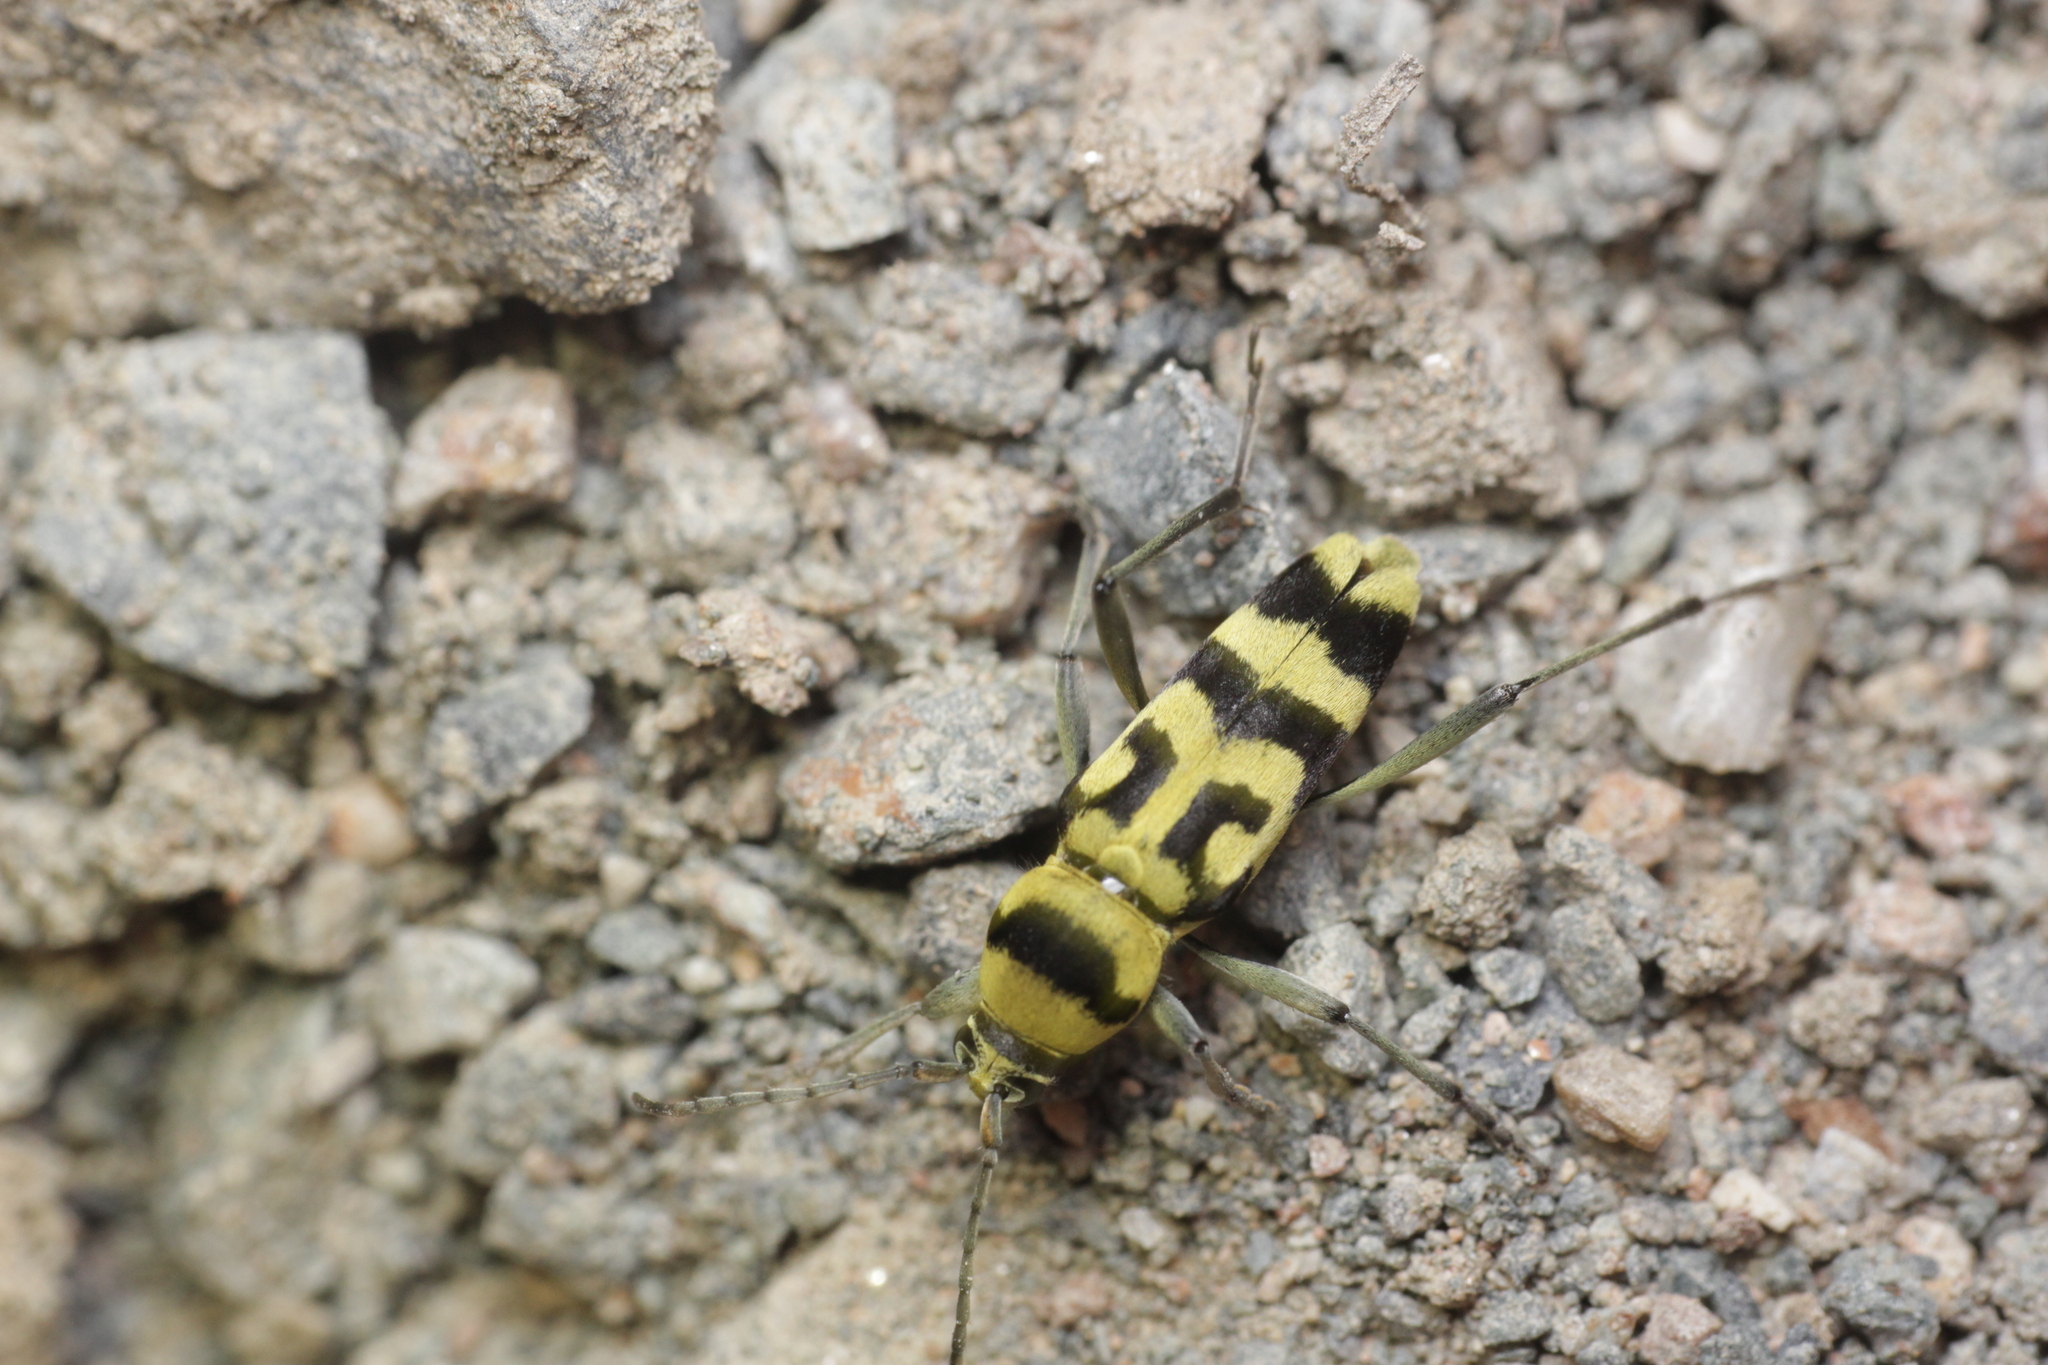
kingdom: Animalia
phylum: Arthropoda
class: Insecta
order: Coleoptera
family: Cerambycidae
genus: Chlorophorus
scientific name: Chlorophorus varius
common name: Grape wood borer
